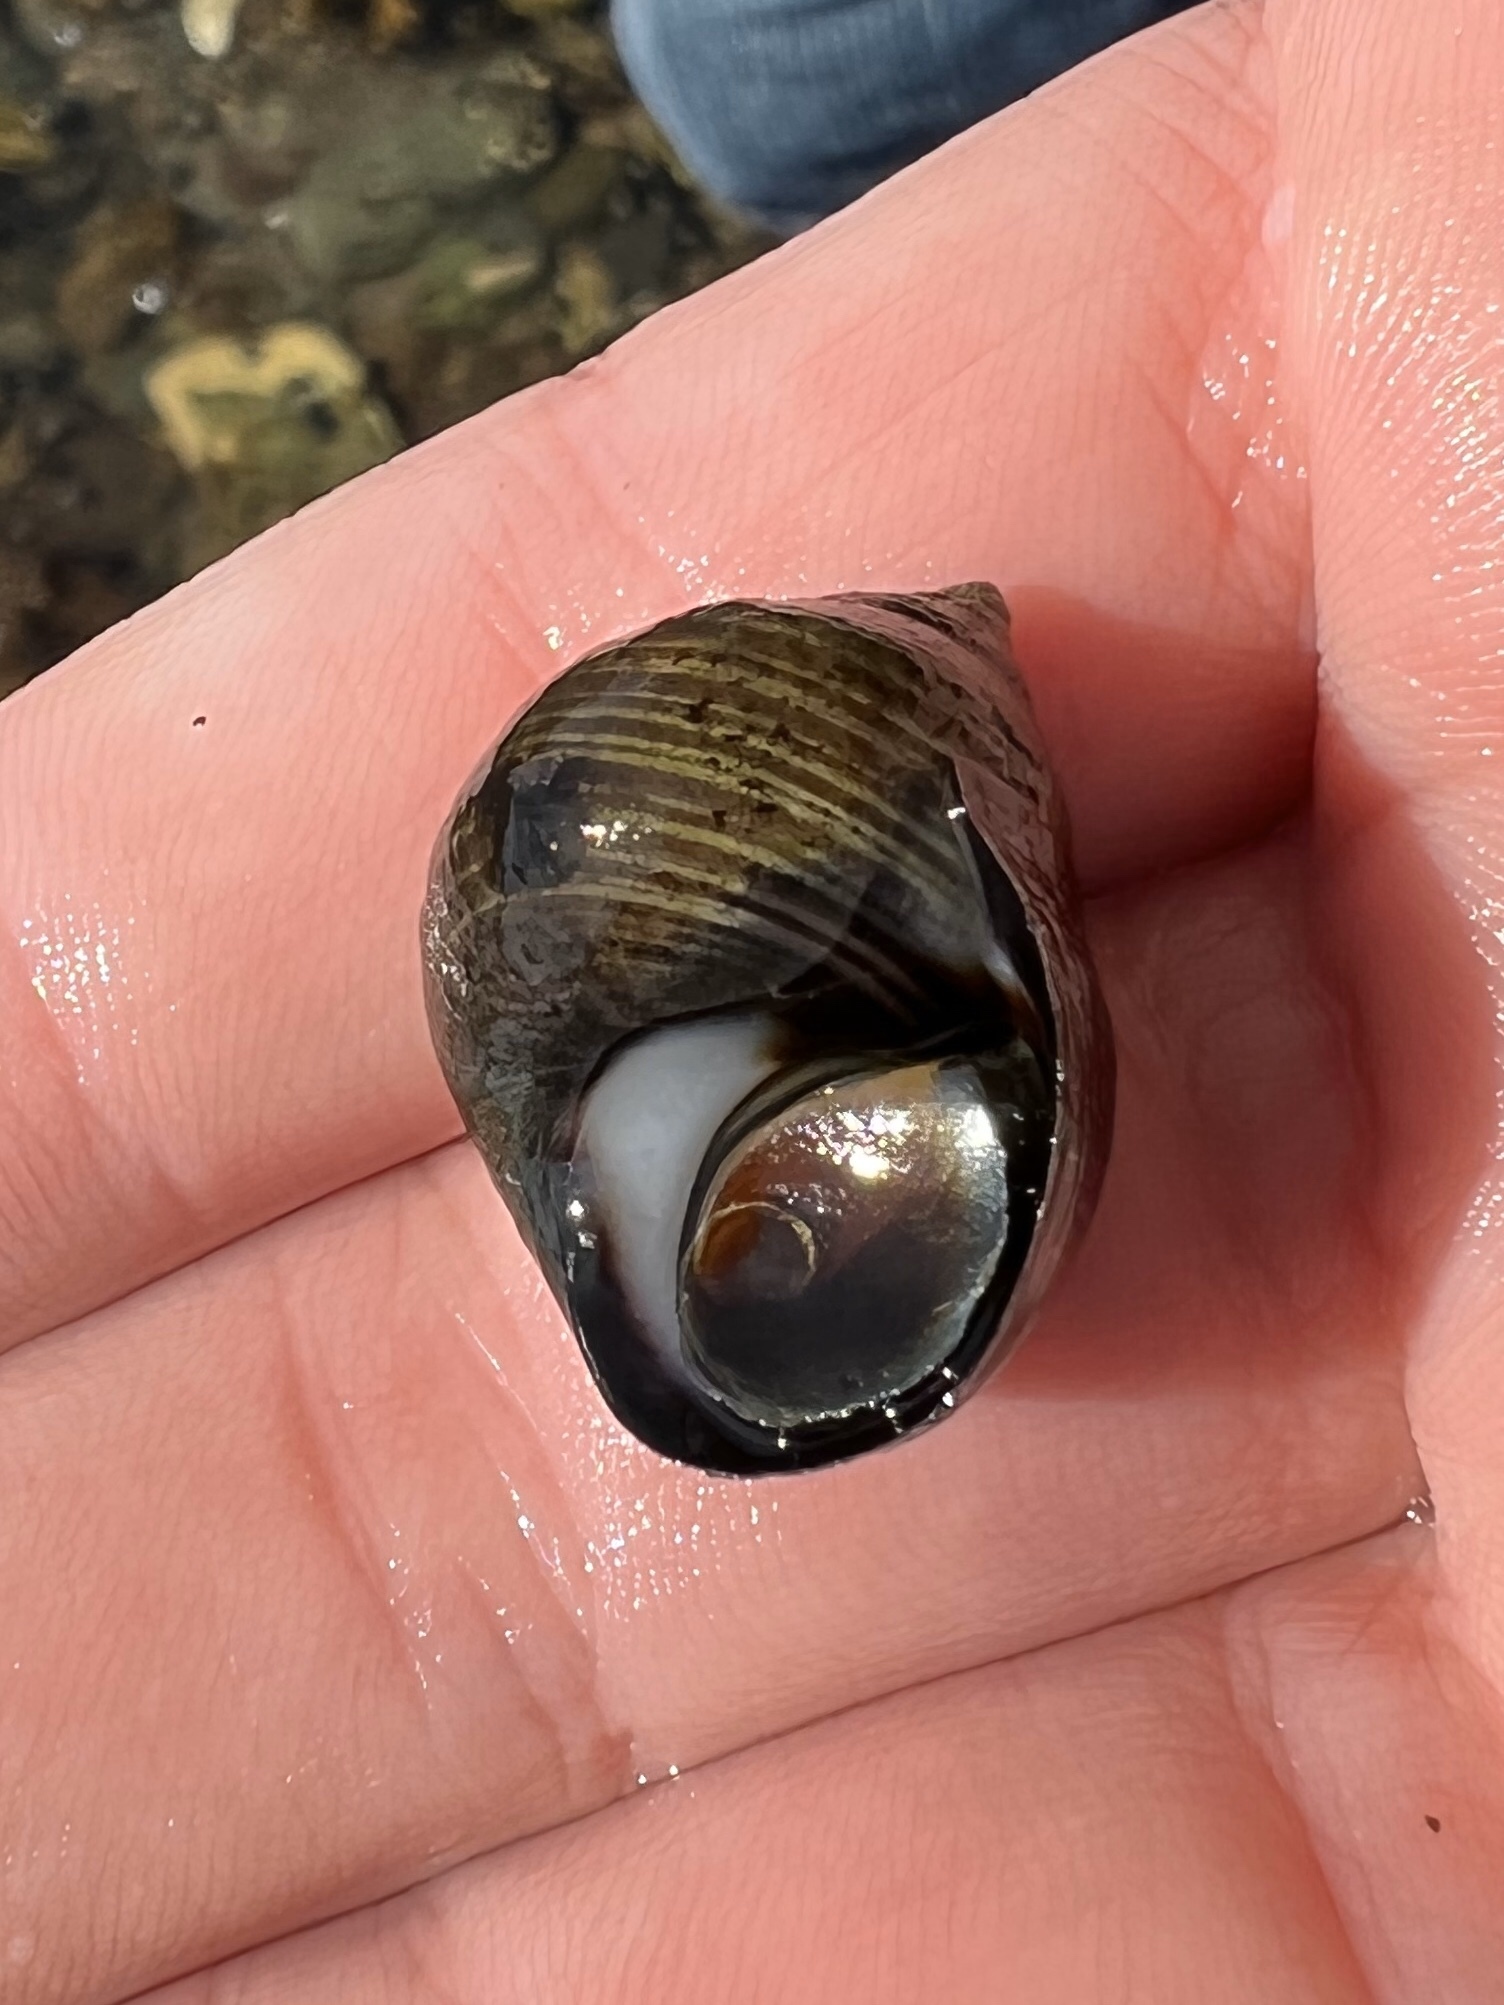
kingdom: Animalia
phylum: Mollusca
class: Gastropoda
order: Littorinimorpha
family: Littorinidae
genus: Littorina
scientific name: Littorina littorea
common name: Common periwinkle
